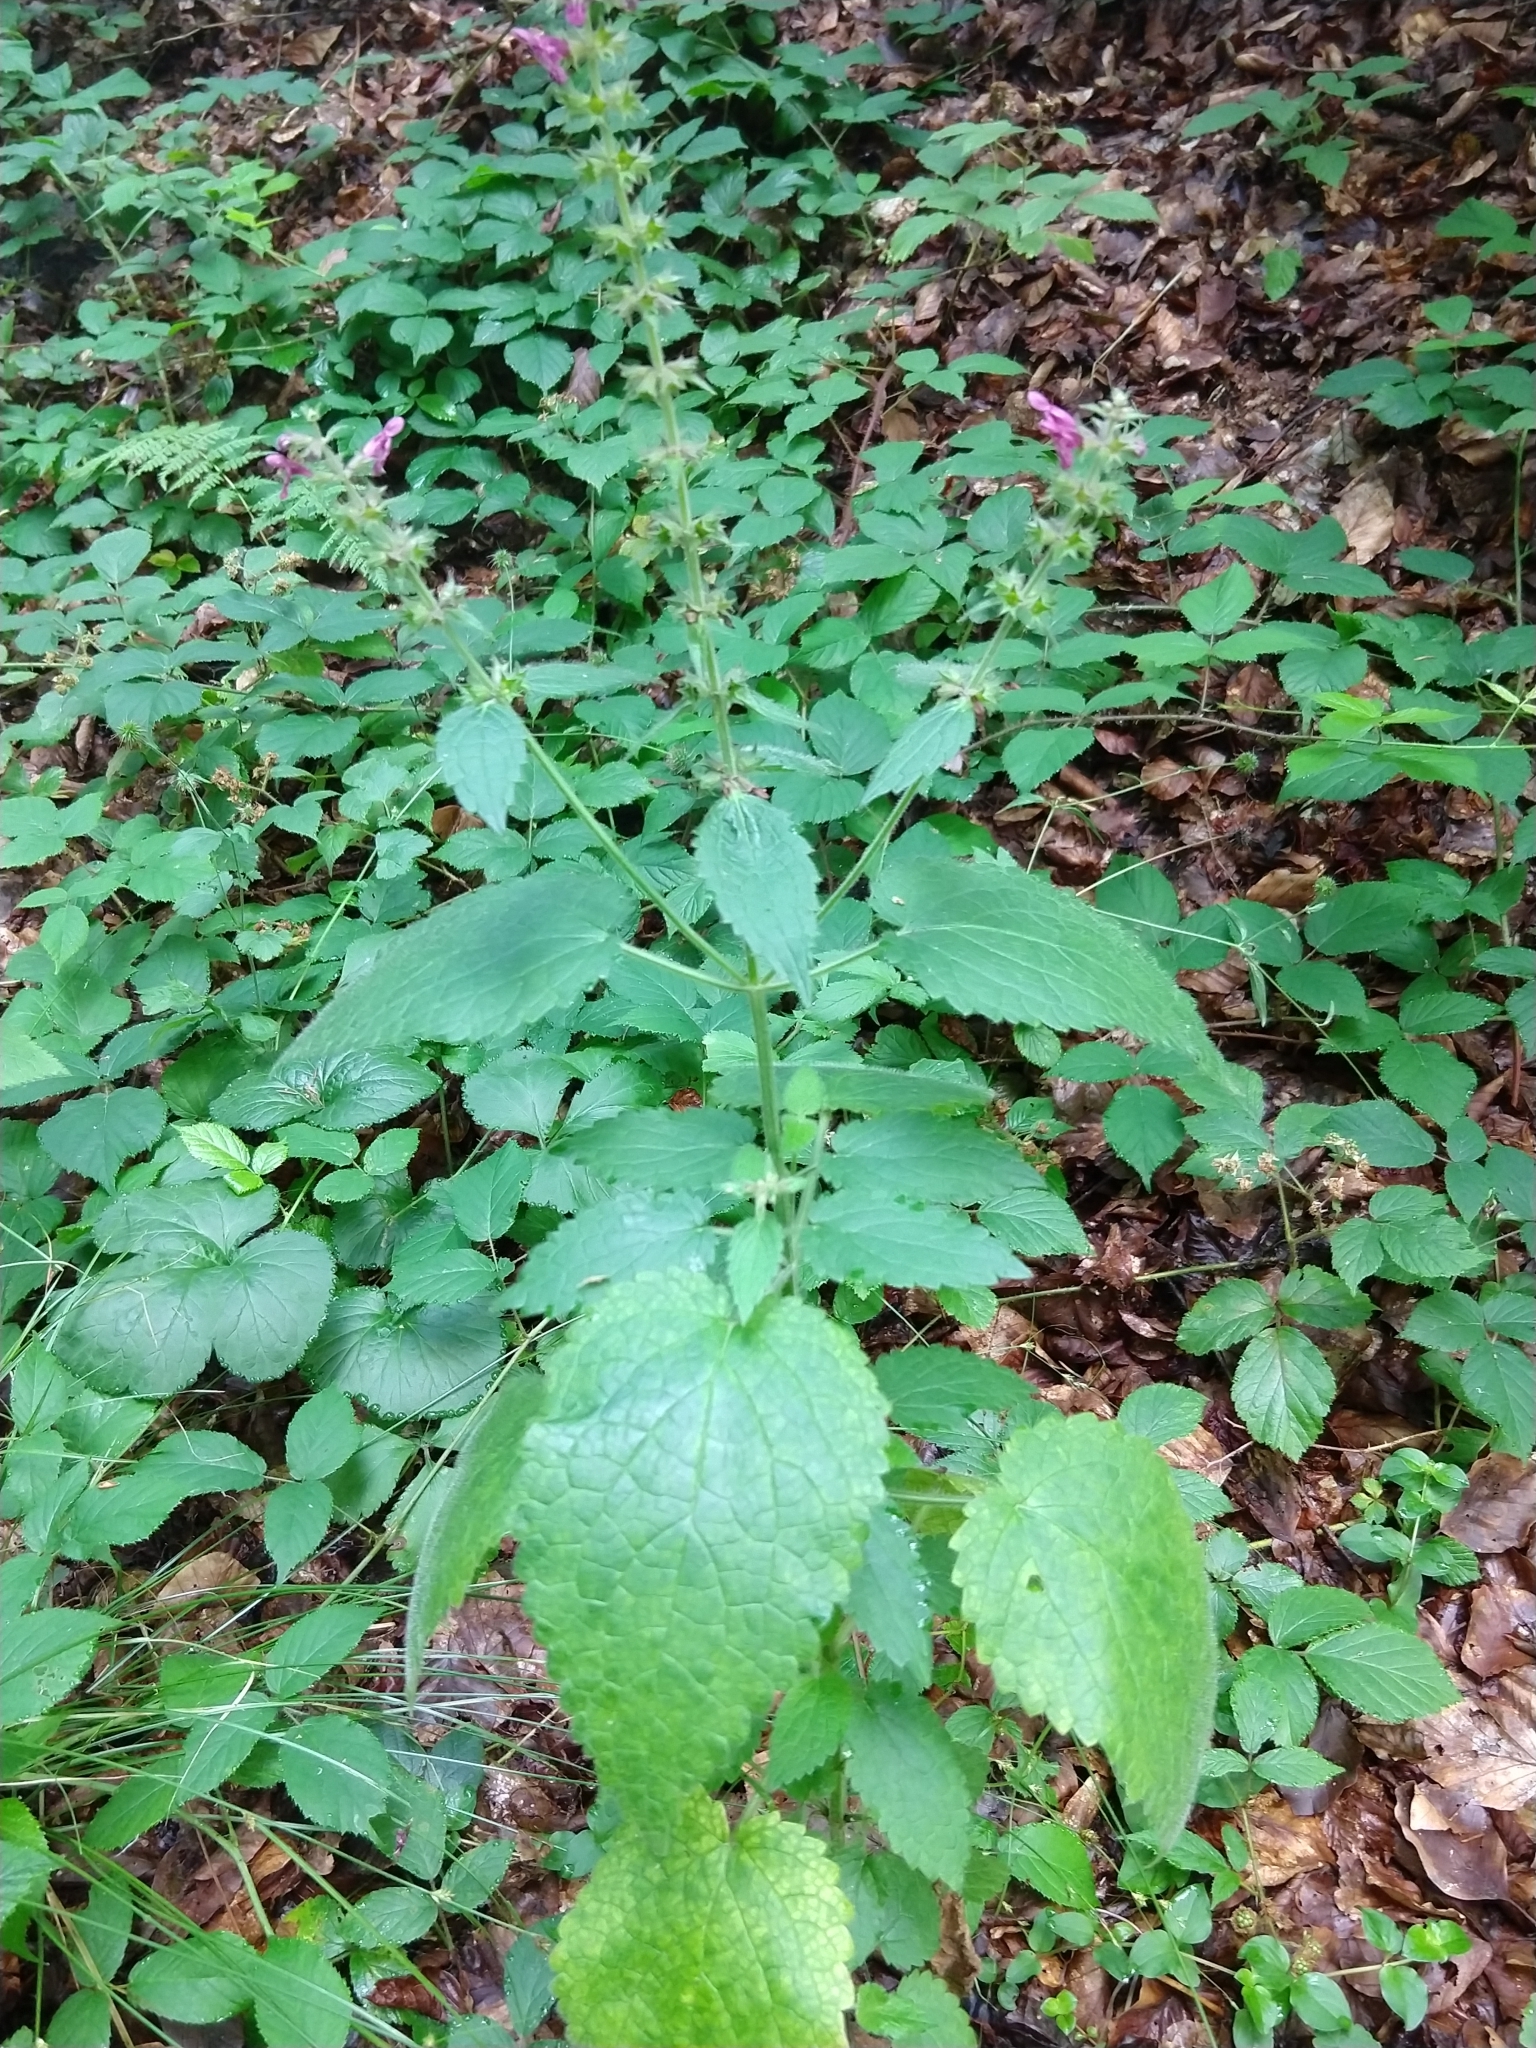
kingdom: Plantae
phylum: Tracheophyta
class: Magnoliopsida
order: Lamiales
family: Lamiaceae
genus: Stachys
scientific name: Stachys sylvatica
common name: Hedge woundwort
